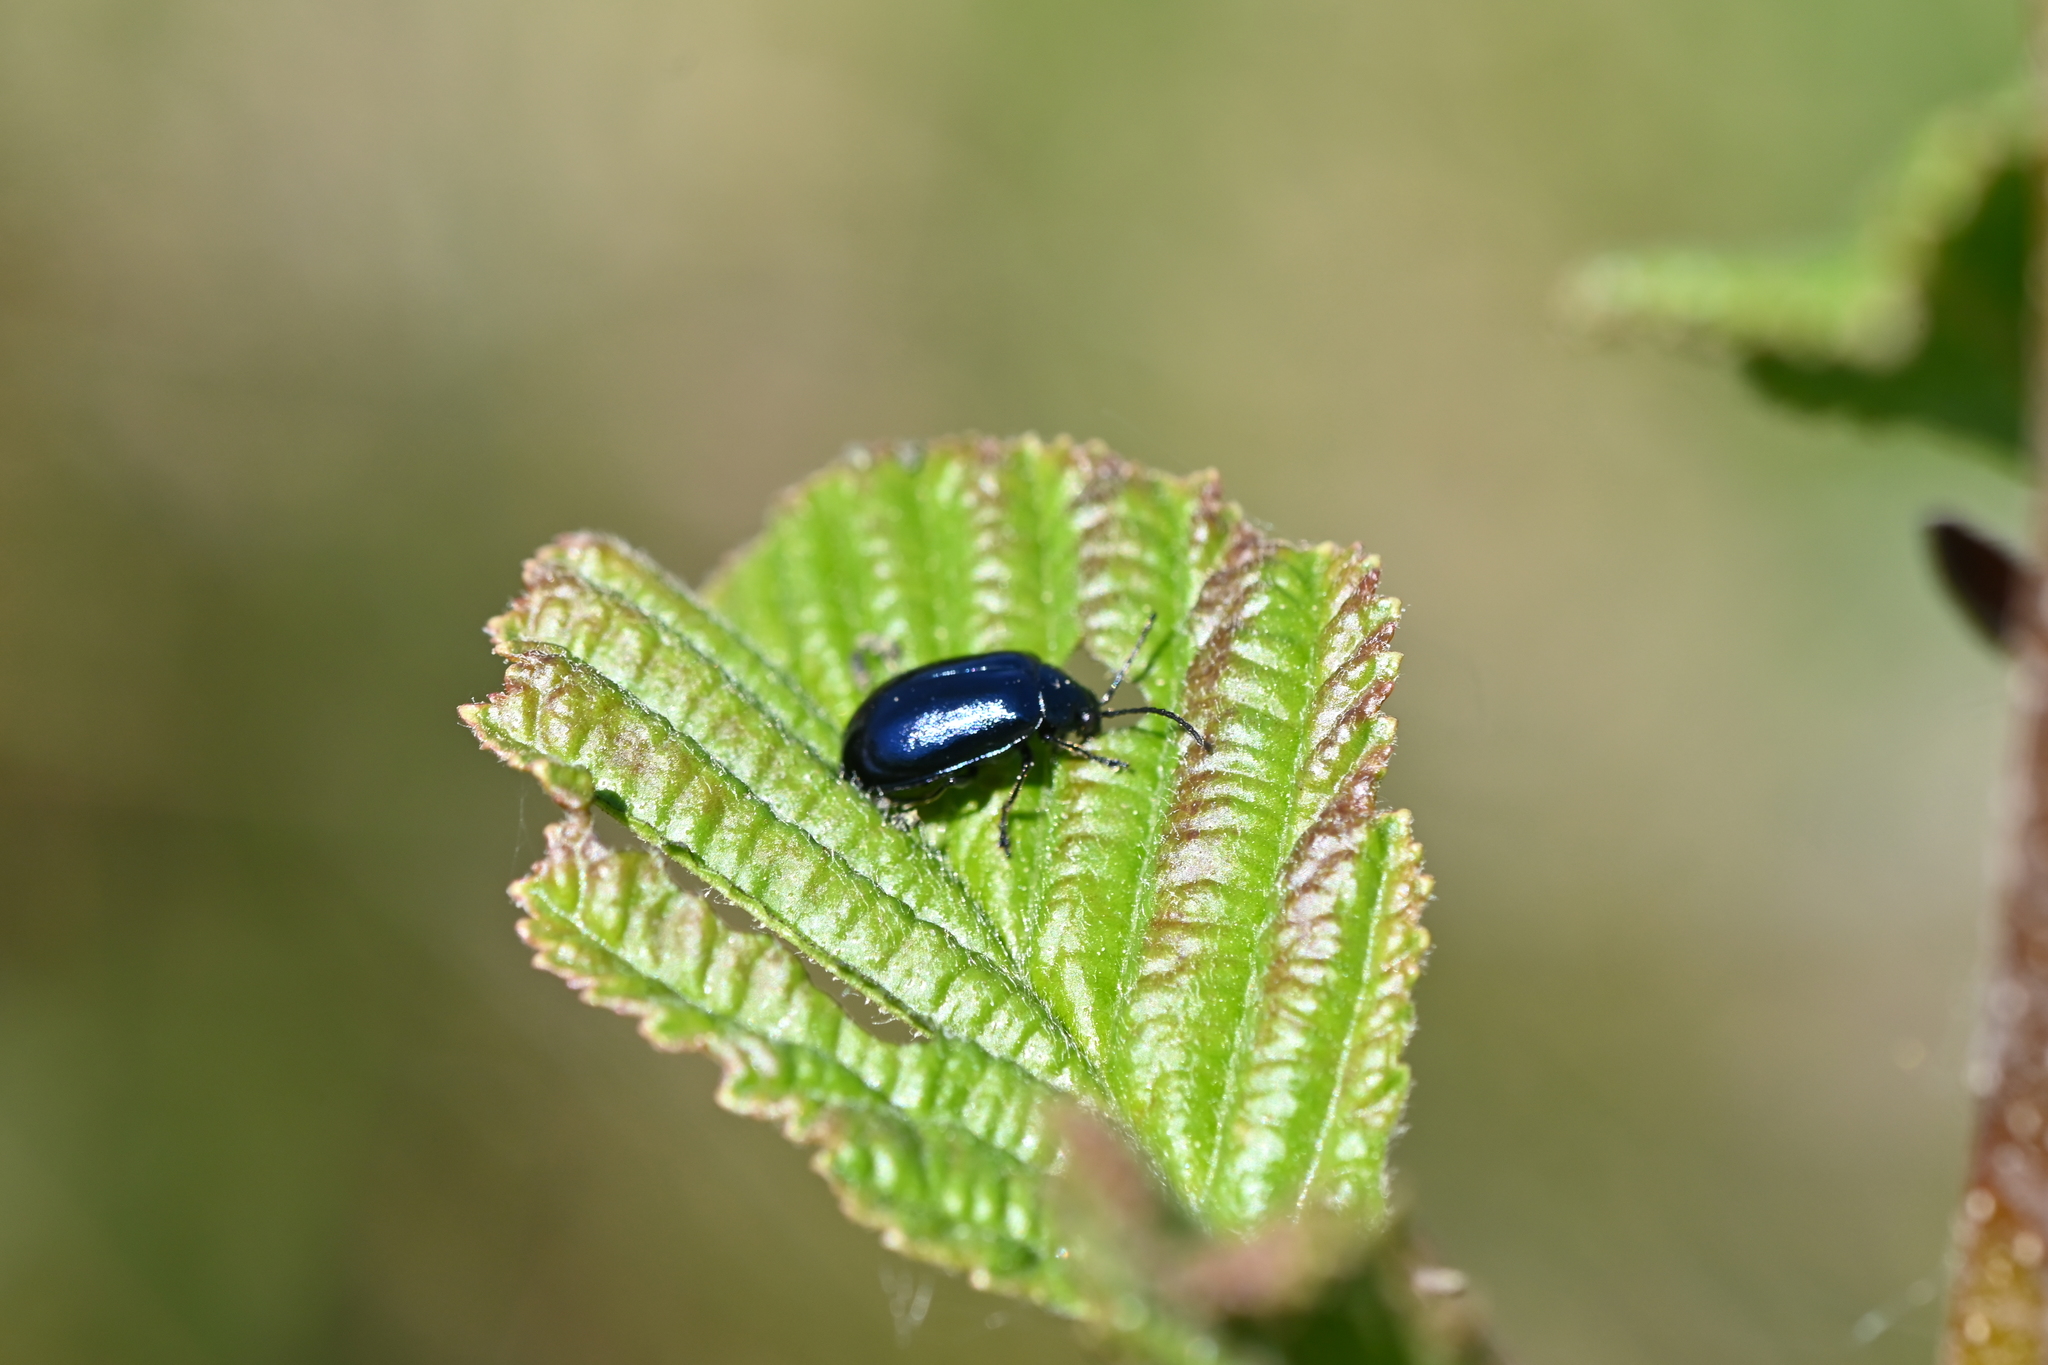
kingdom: Animalia
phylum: Arthropoda
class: Insecta
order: Coleoptera
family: Chrysomelidae
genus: Agelastica
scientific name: Agelastica alni
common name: Alder leaf beetle
